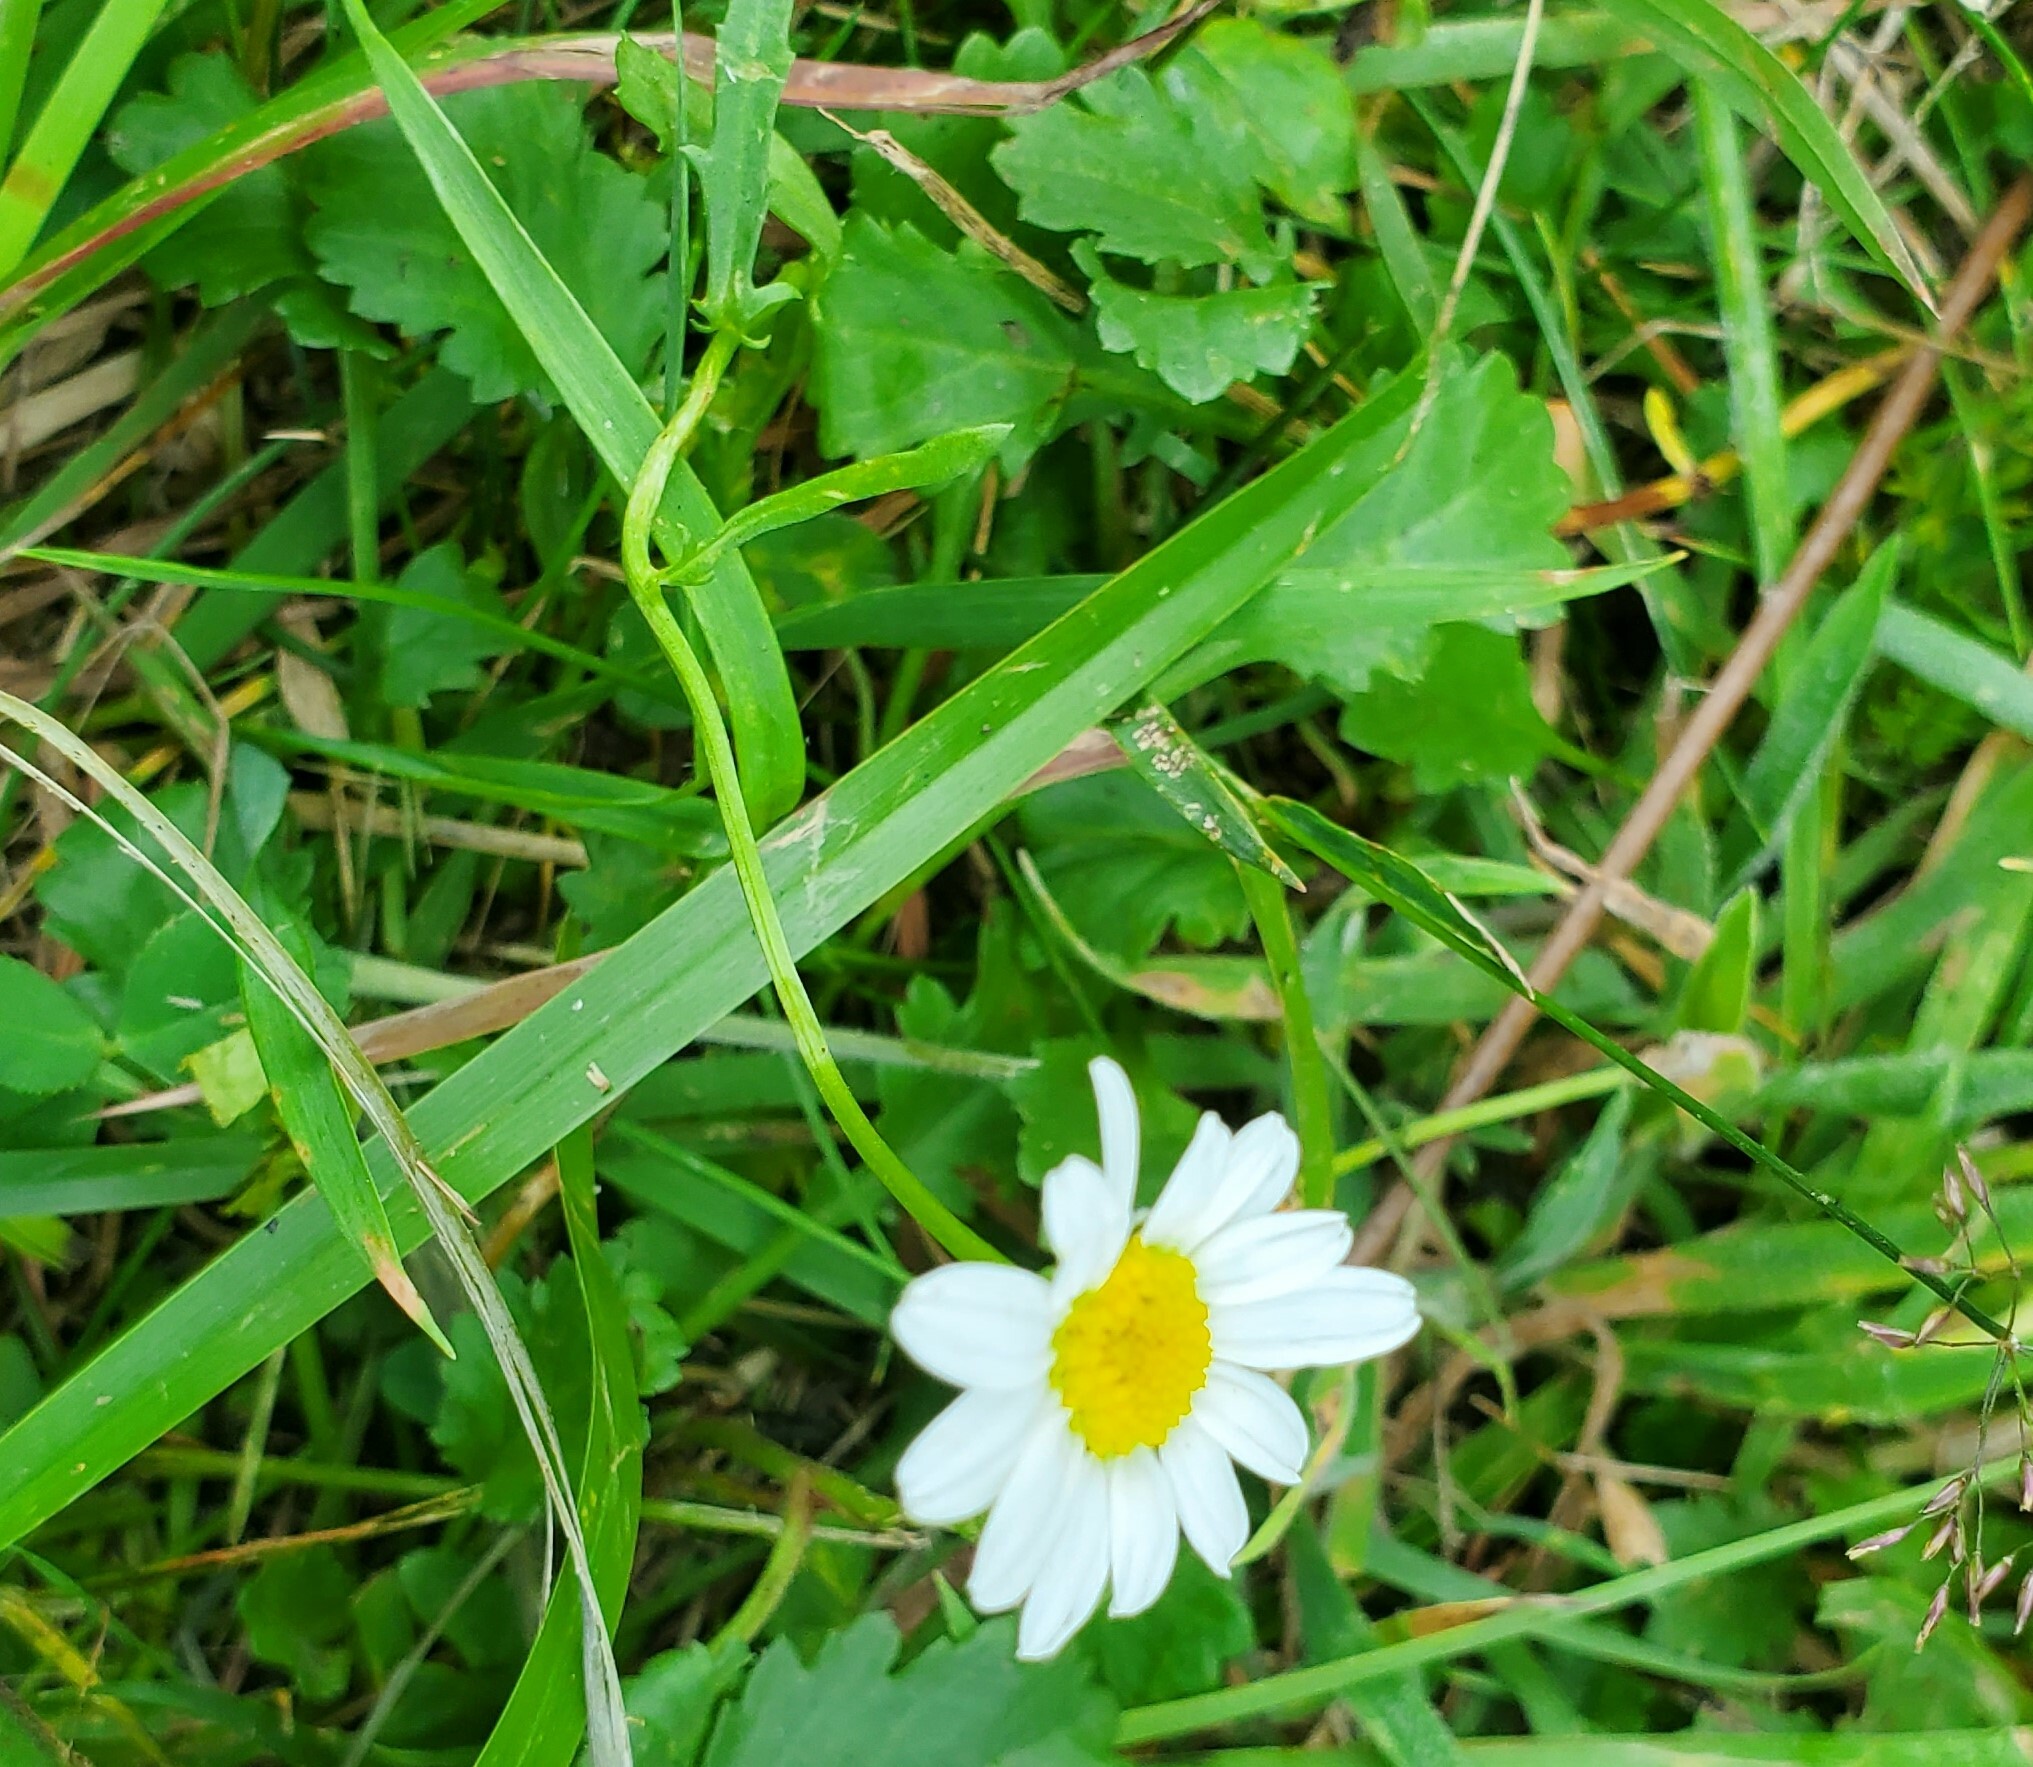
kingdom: Plantae
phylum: Tracheophyta
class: Magnoliopsida
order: Asterales
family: Asteraceae
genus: Leucanthemum
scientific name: Leucanthemum vulgare
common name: Oxeye daisy
